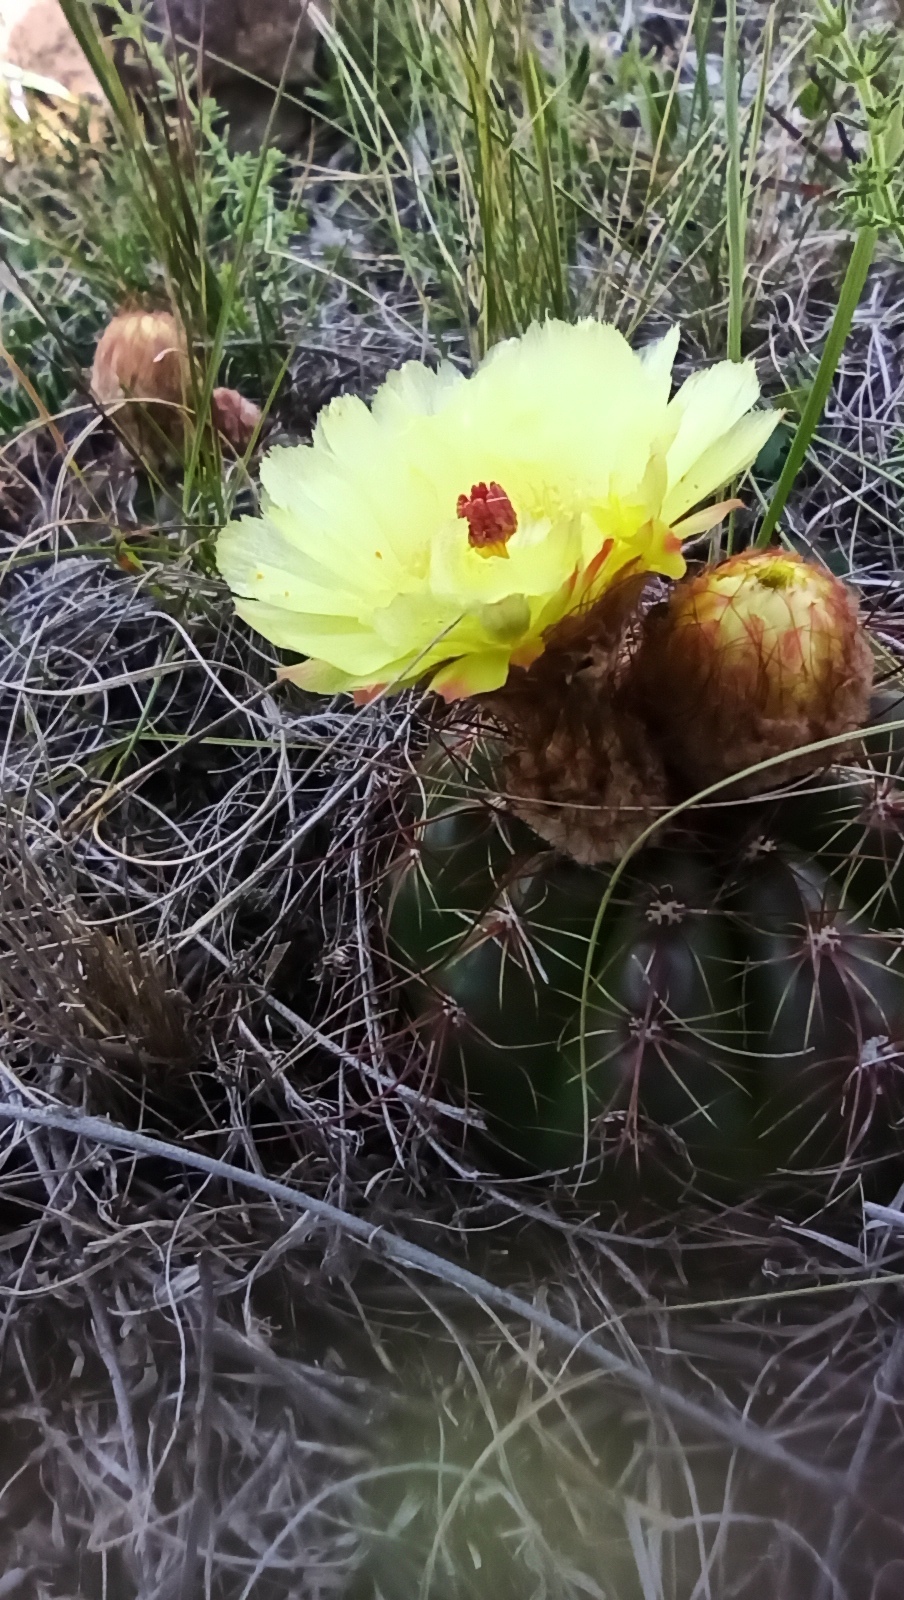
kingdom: Plantae
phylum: Tracheophyta
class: Magnoliopsida
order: Caryophyllales
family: Cactaceae
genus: Parodia
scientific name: Parodia ottonis
